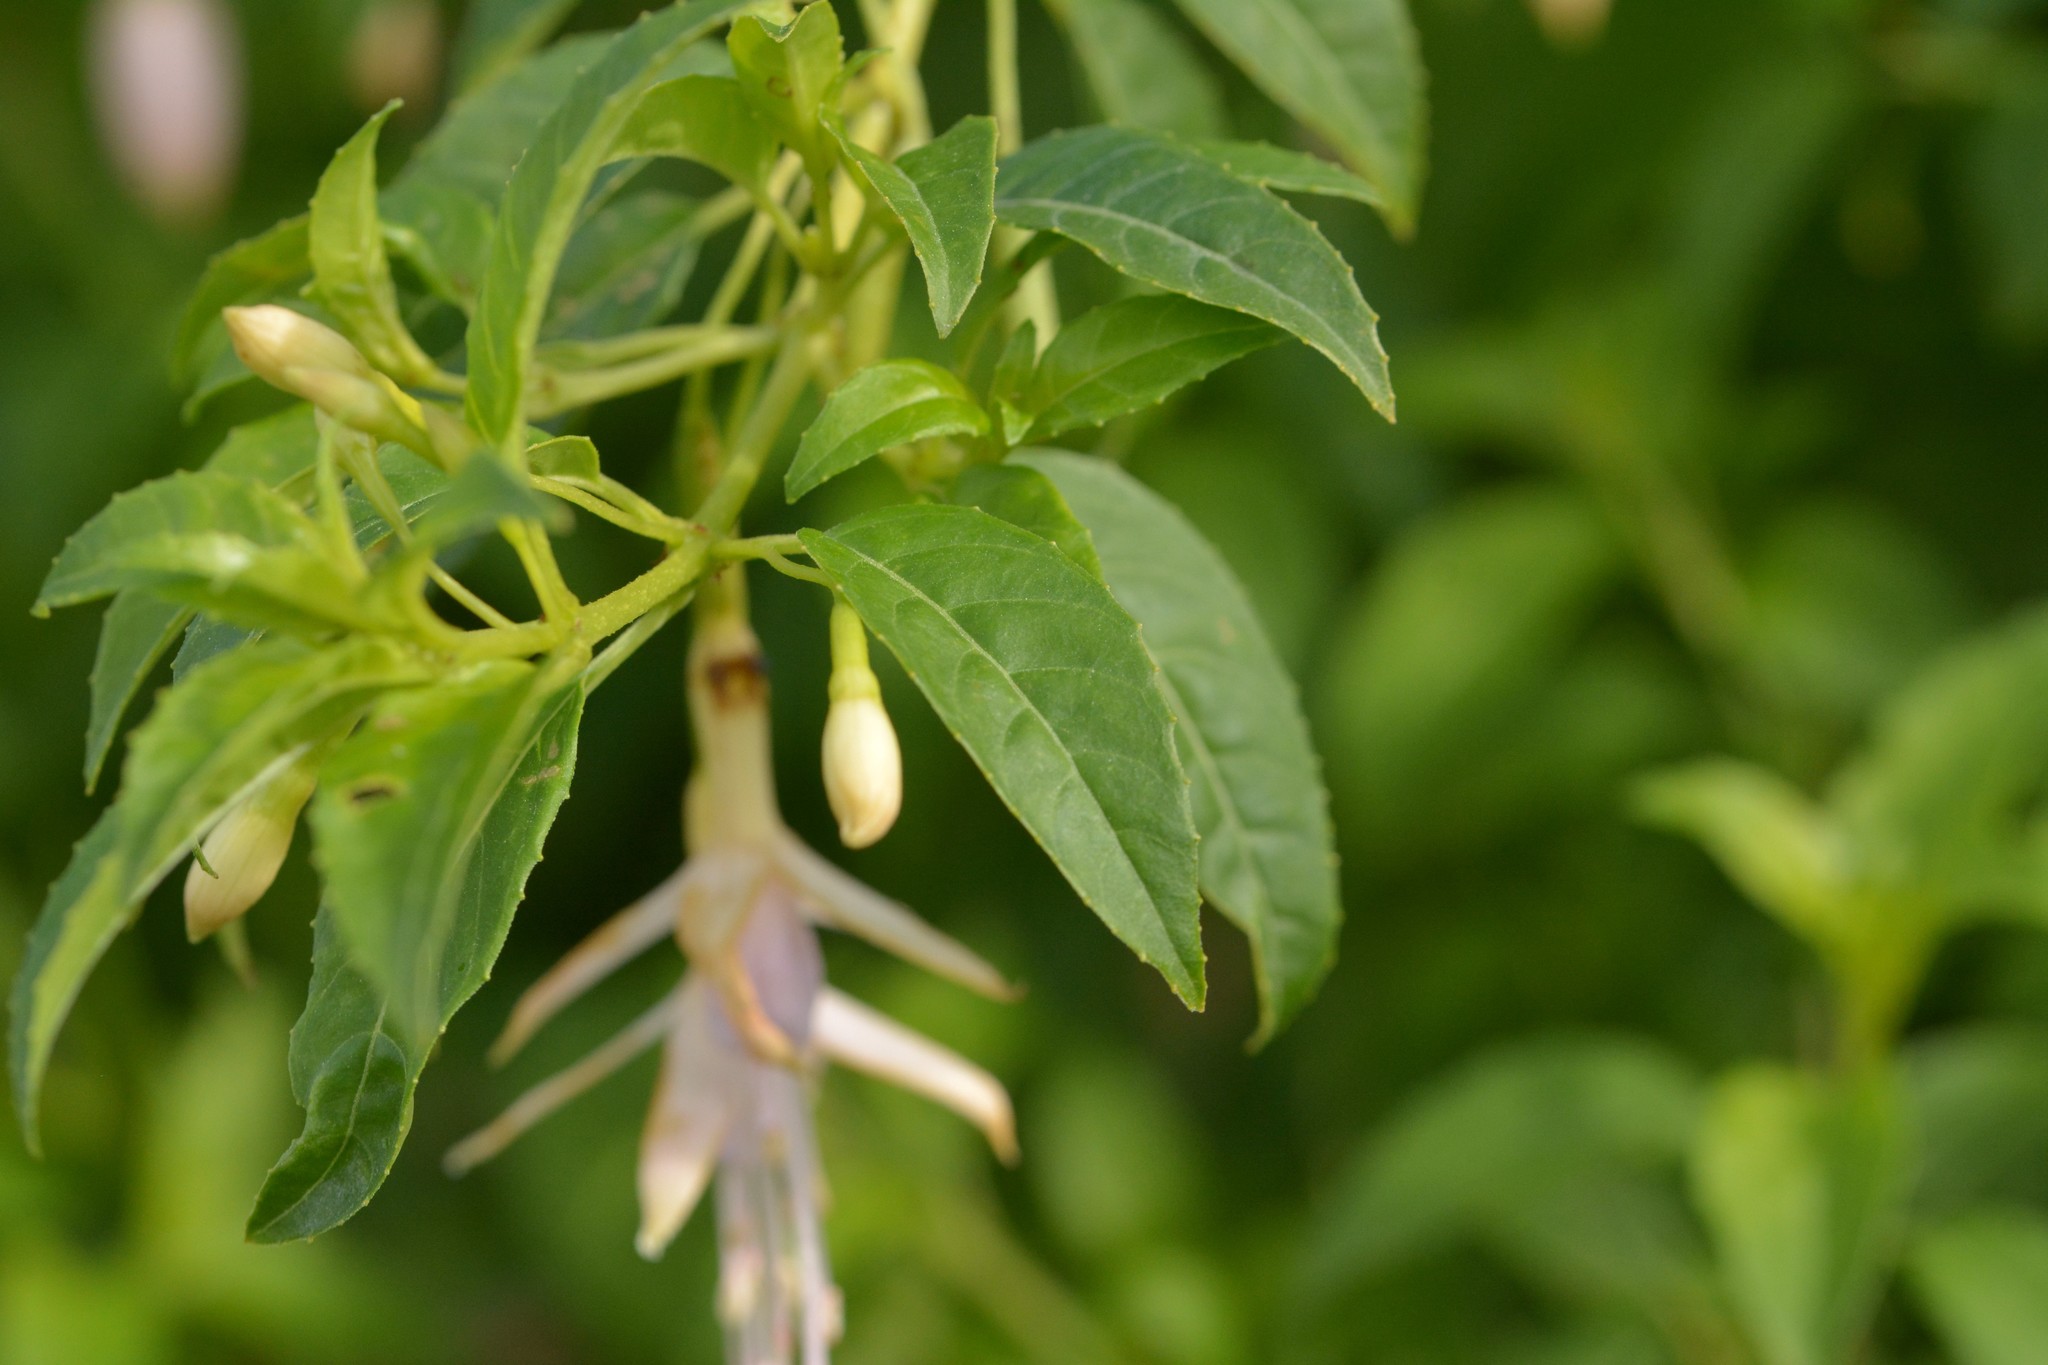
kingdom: Plantae
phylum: Tracheophyta
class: Magnoliopsida
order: Myrtales
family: Onagraceae
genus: Fuchsia
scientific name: Fuchsia magellanica
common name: Hardy fuchsia
